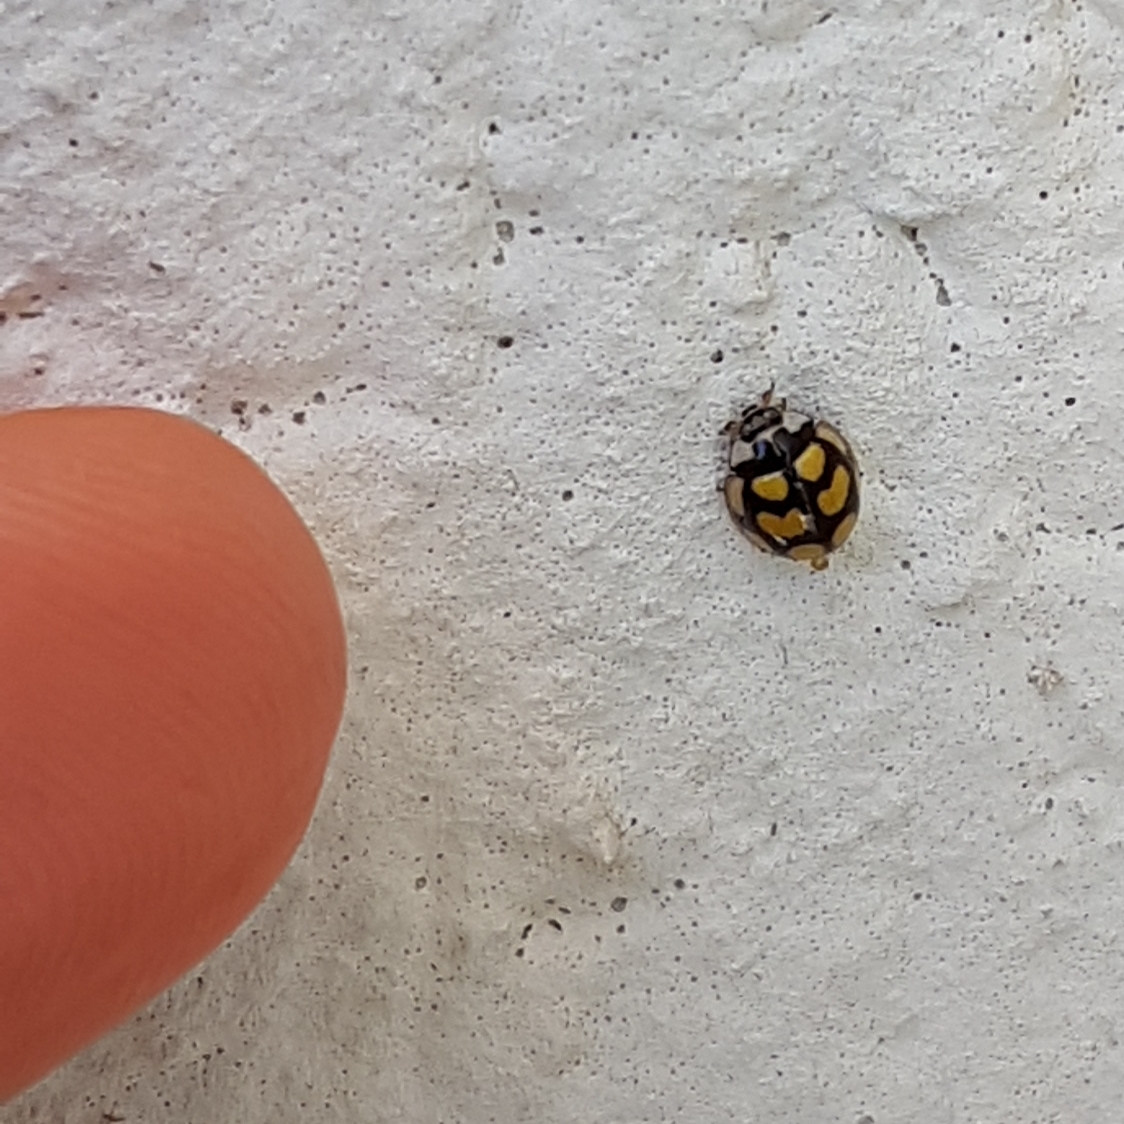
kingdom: Animalia
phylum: Arthropoda
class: Insecta
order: Coleoptera
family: Coccinellidae
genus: Oenopia
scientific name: Oenopia lyncea
